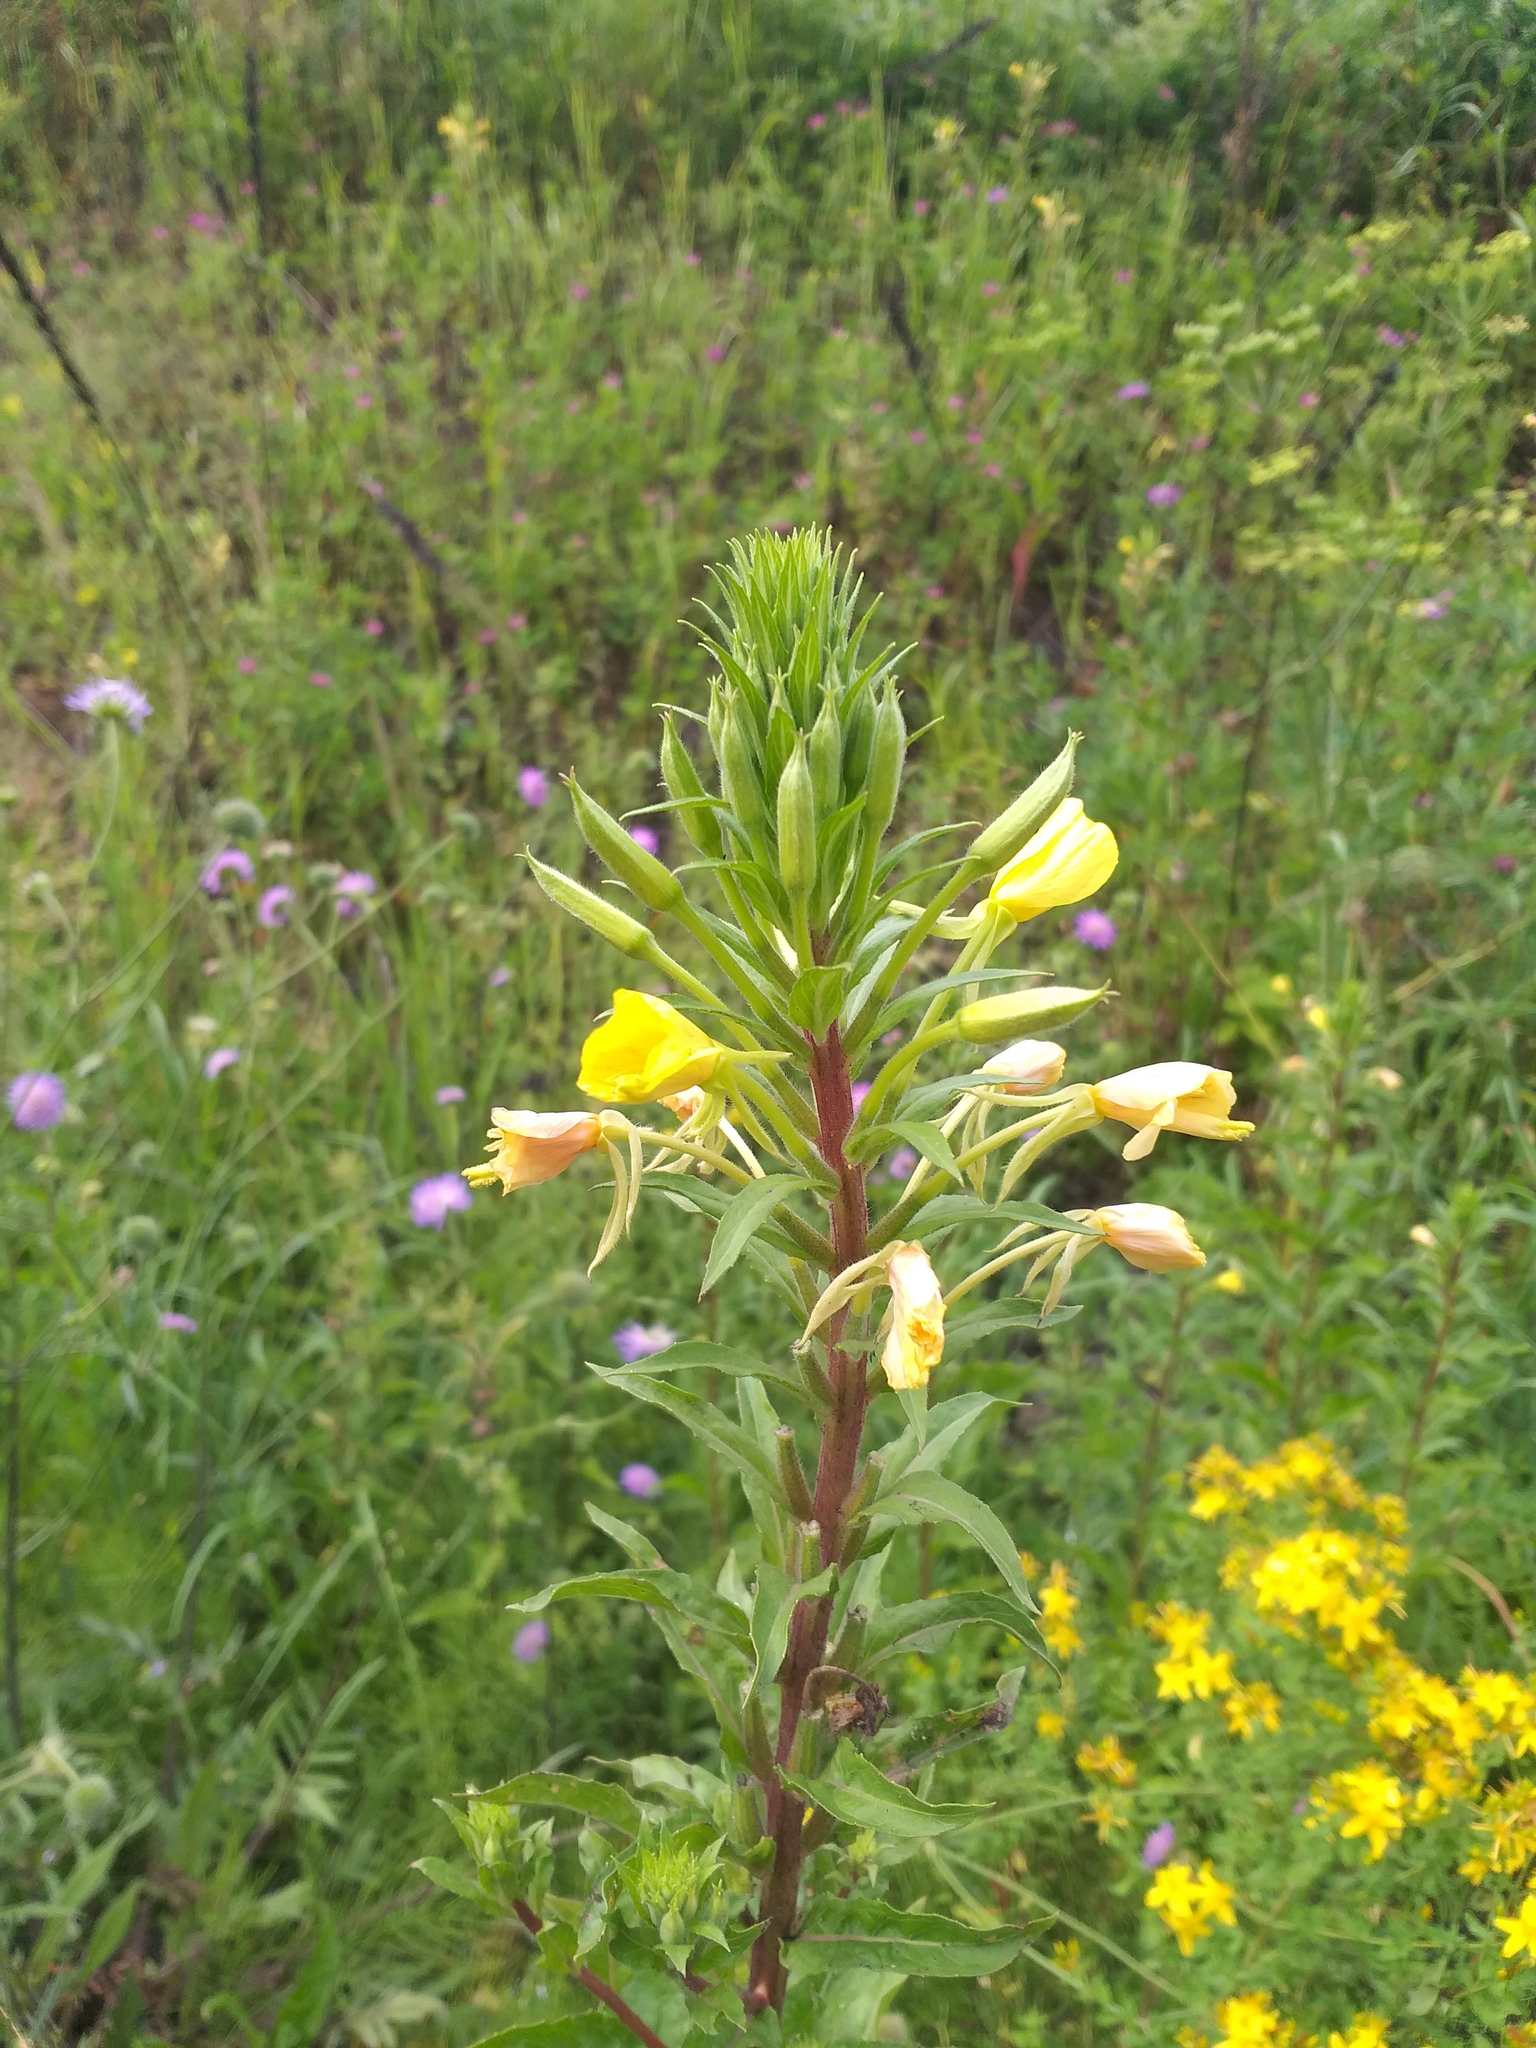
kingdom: Plantae
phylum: Tracheophyta
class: Magnoliopsida
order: Myrtales
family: Onagraceae
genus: Oenothera
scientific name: Oenothera rubricaulis
